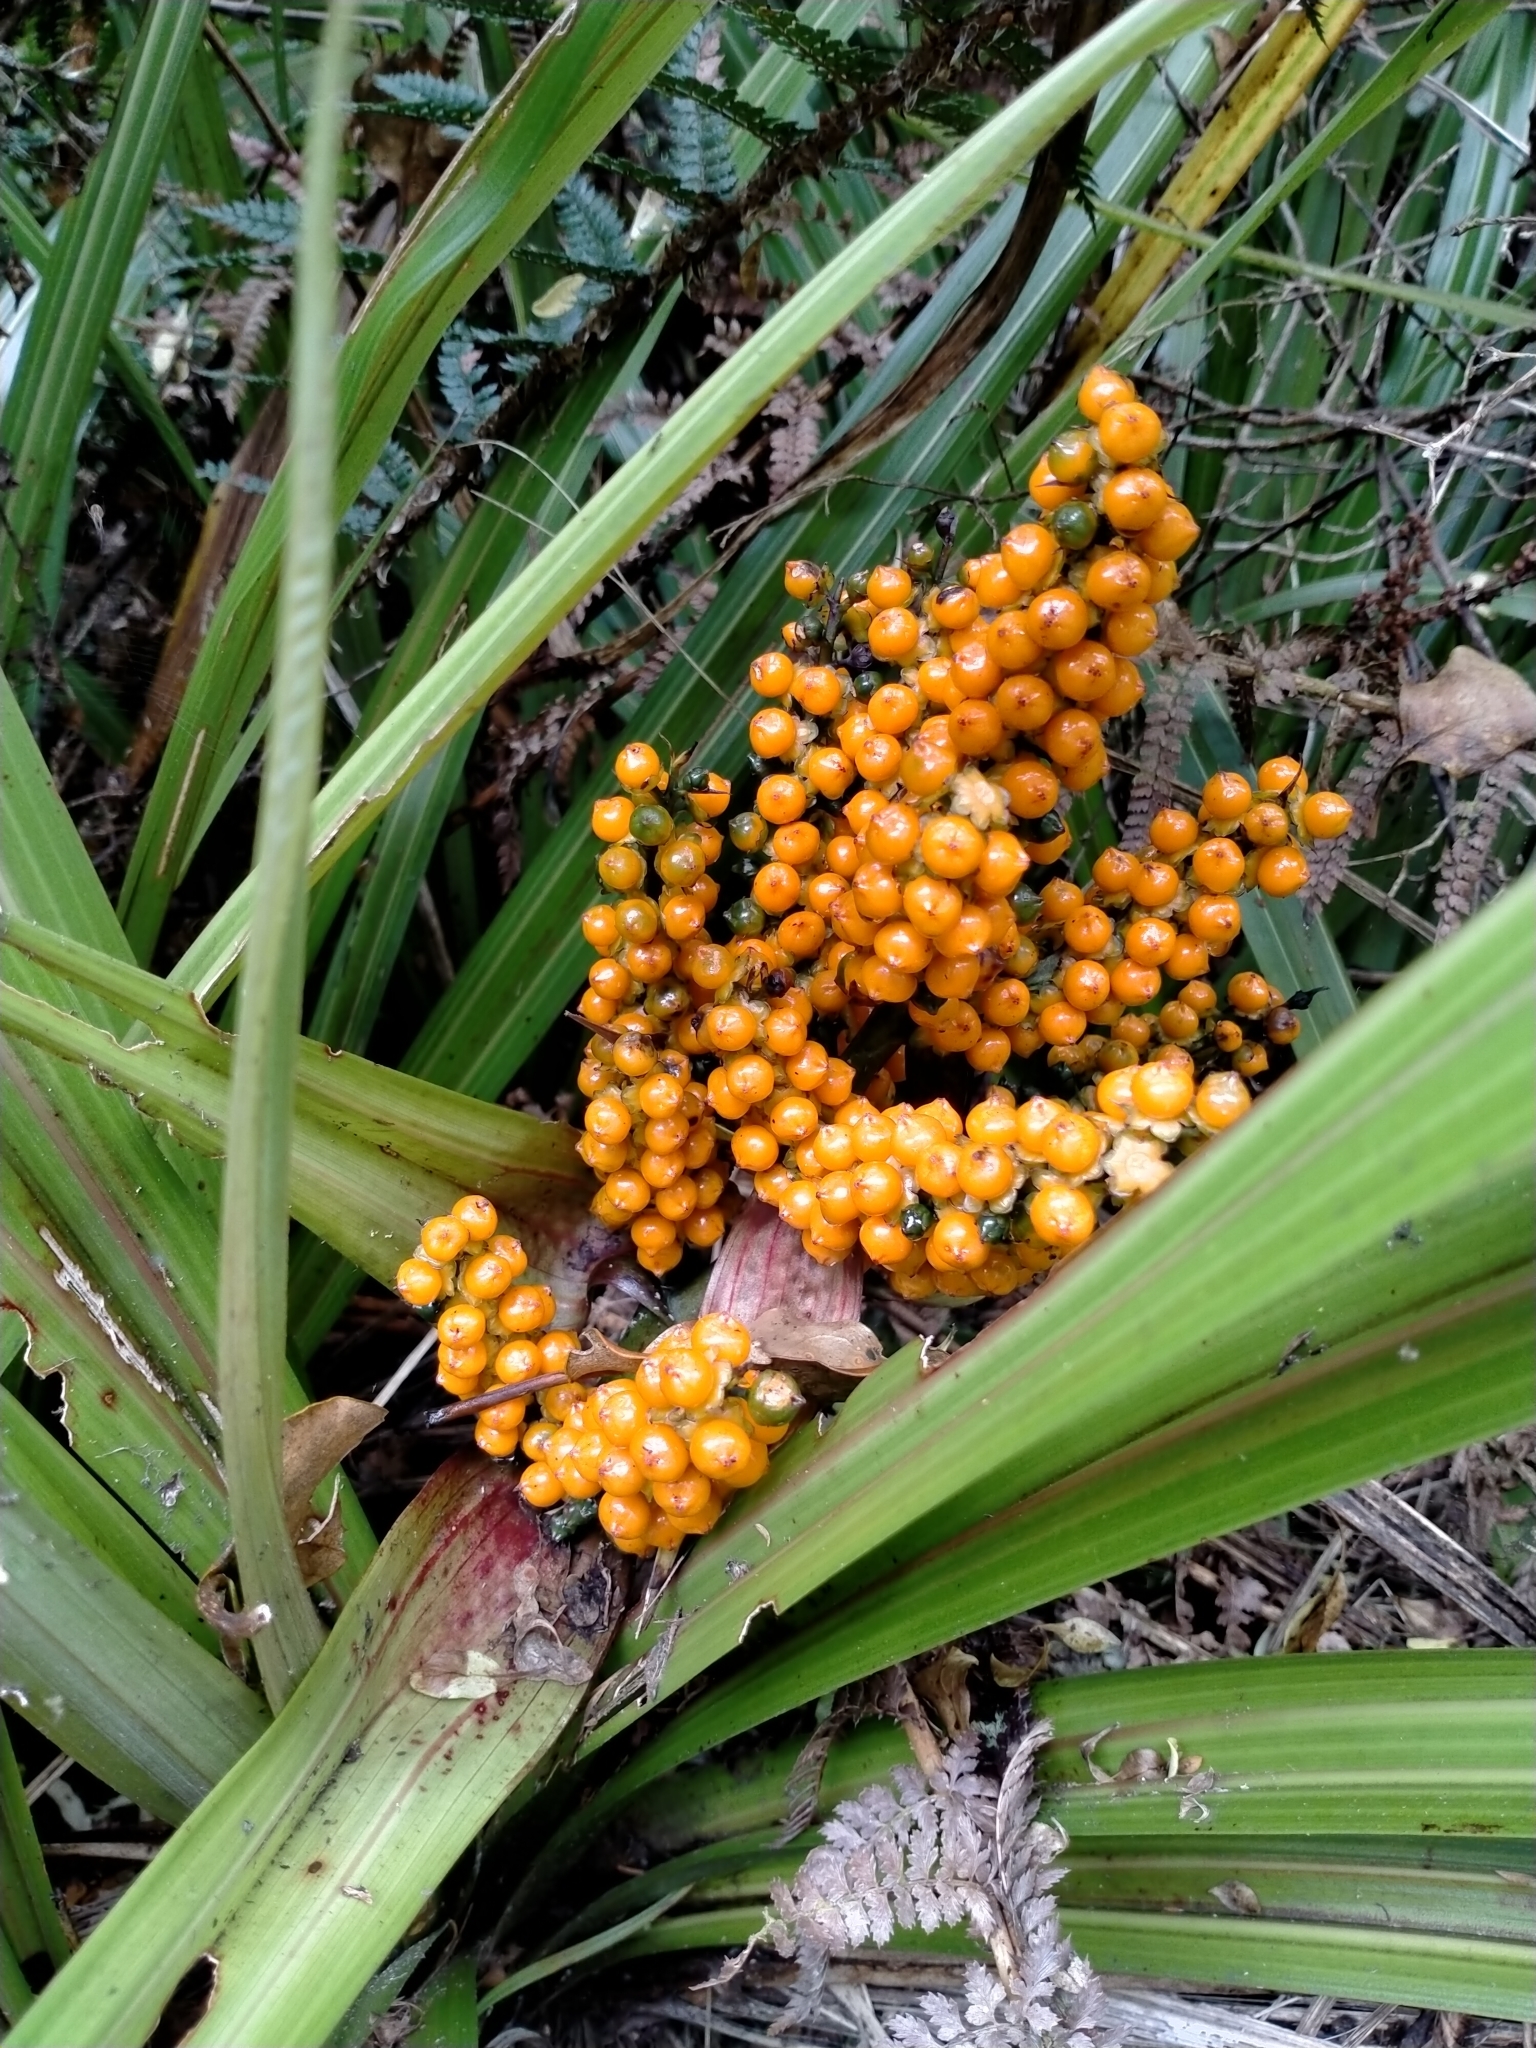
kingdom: Plantae
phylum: Tracheophyta
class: Liliopsida
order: Asparagales
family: Asteliaceae
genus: Astelia
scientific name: Astelia fragrans
